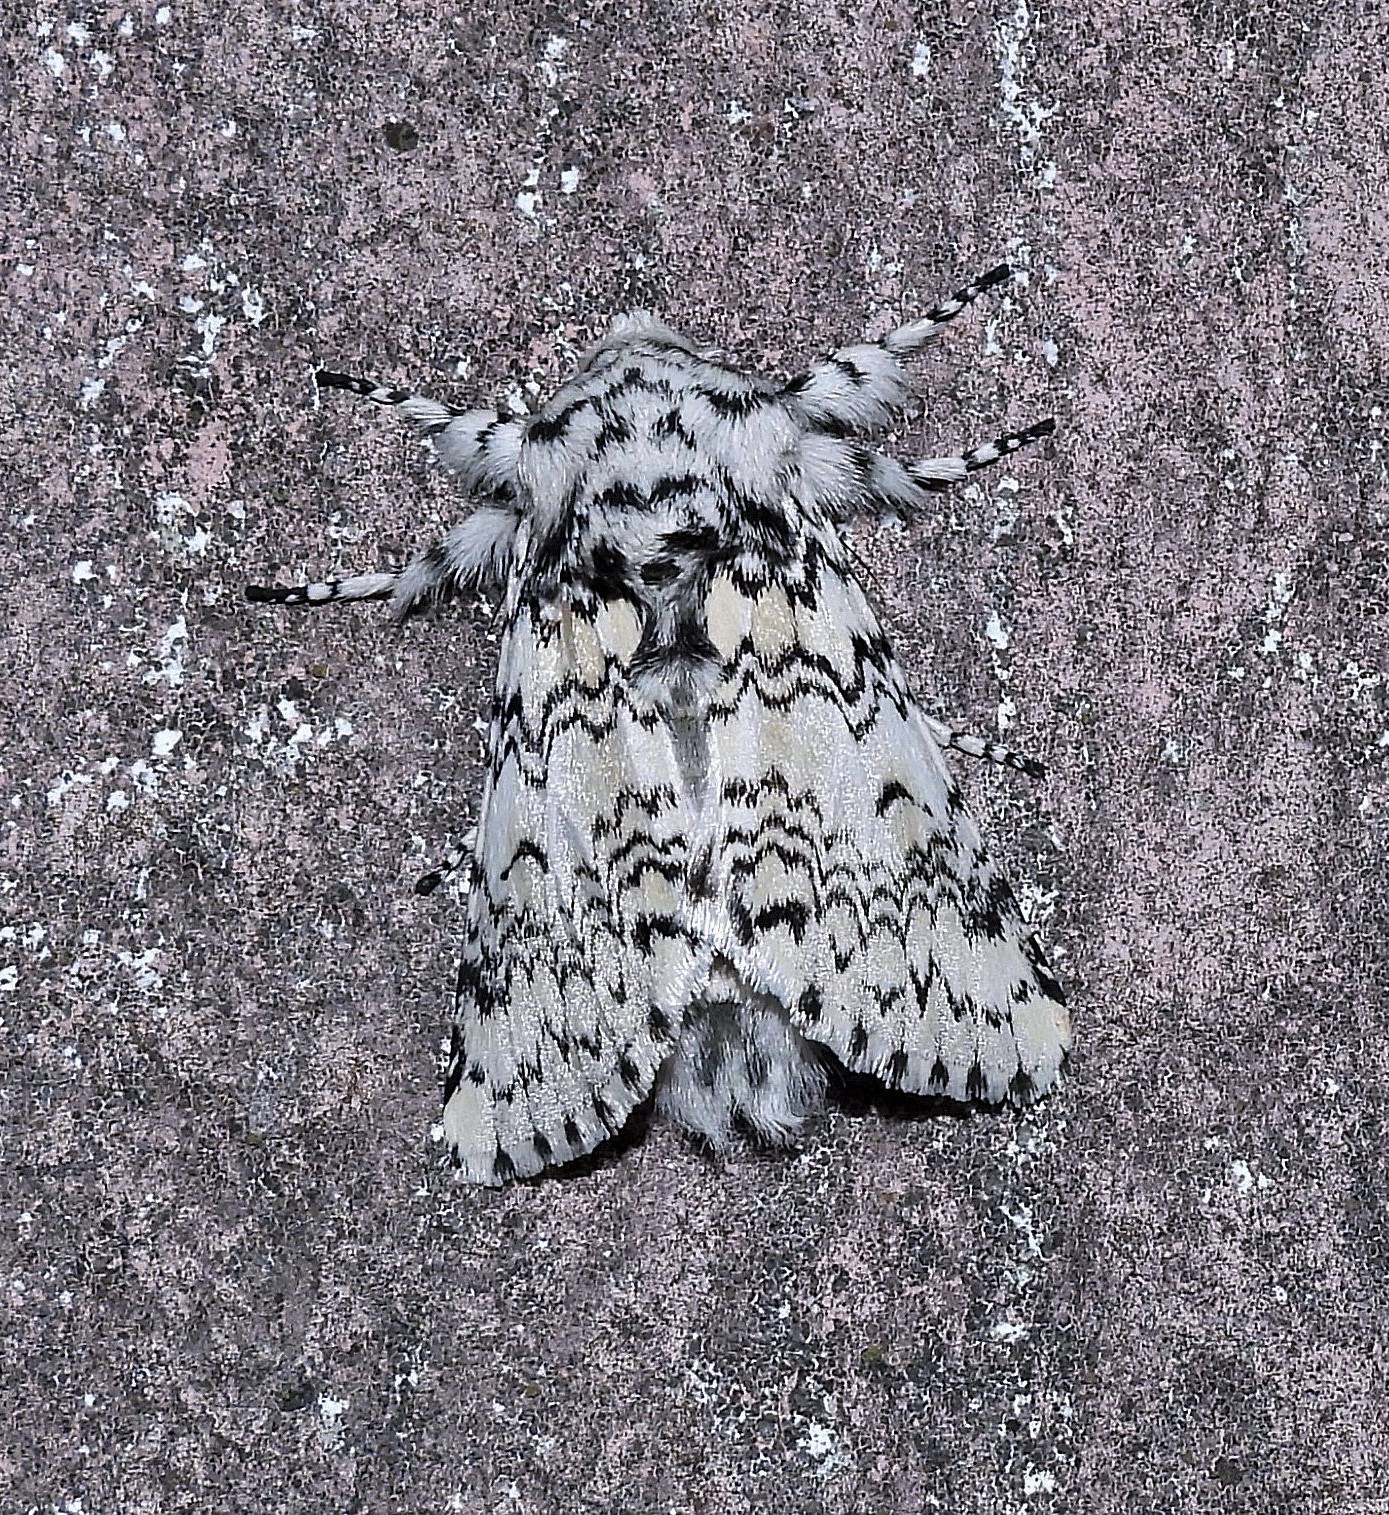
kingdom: Animalia
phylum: Arthropoda
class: Insecta
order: Lepidoptera
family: Notodontidae
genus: Tecmessa
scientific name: Tecmessa annulipes
